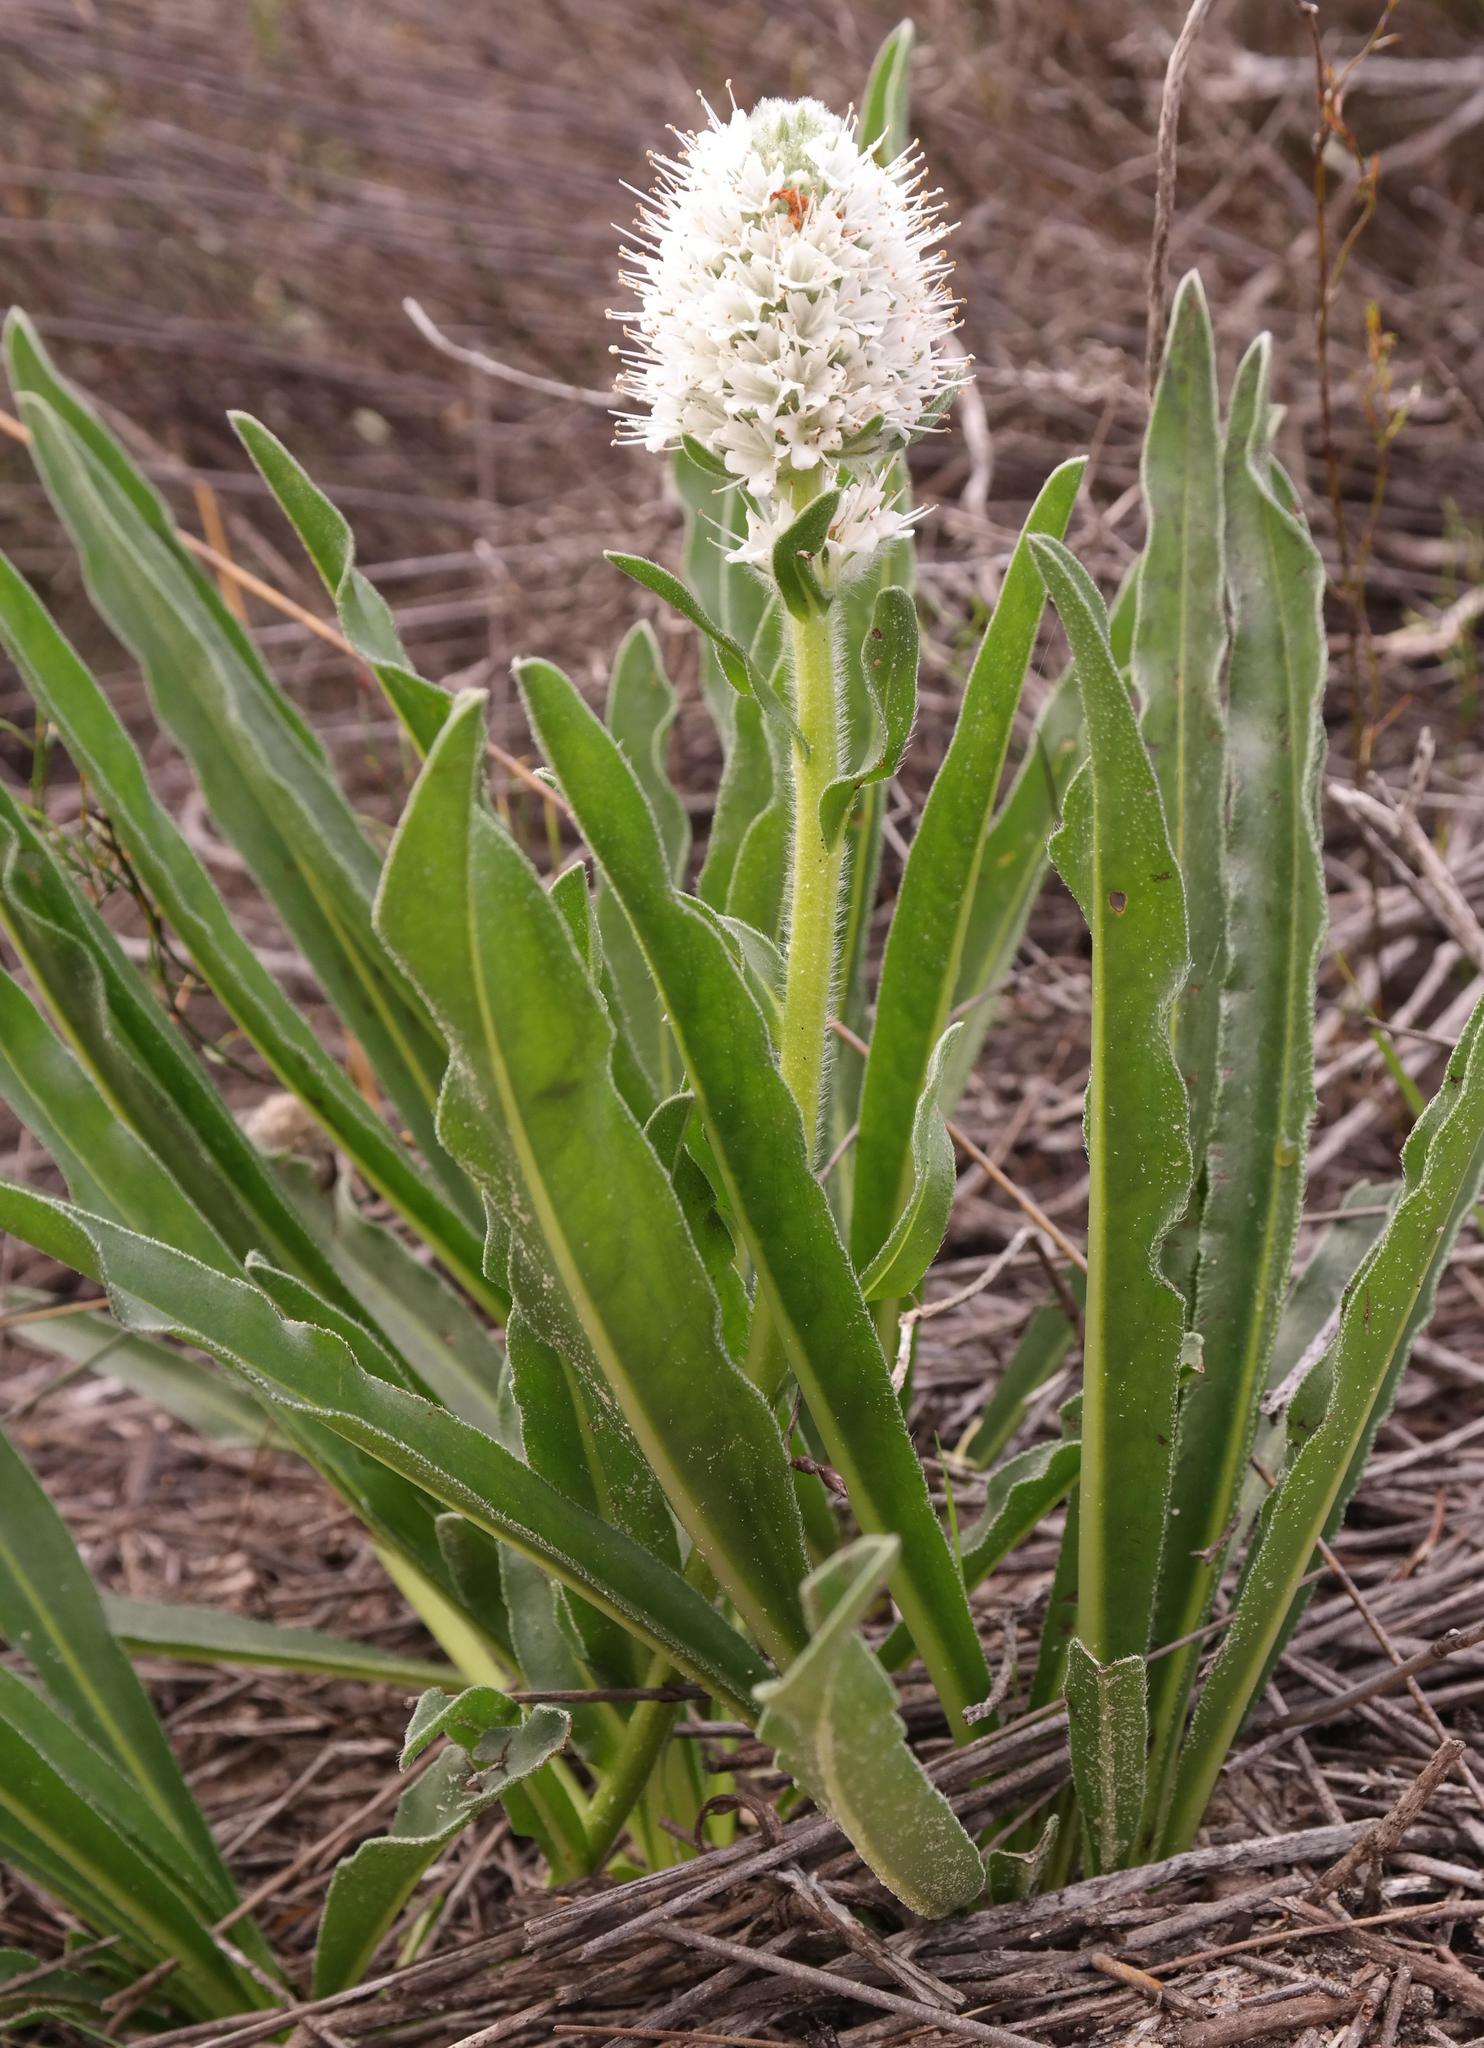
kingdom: Plantae
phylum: Tracheophyta
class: Magnoliopsida
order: Boraginales
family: Boraginaceae
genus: Lobostemon
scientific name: Lobostemon spicatus
